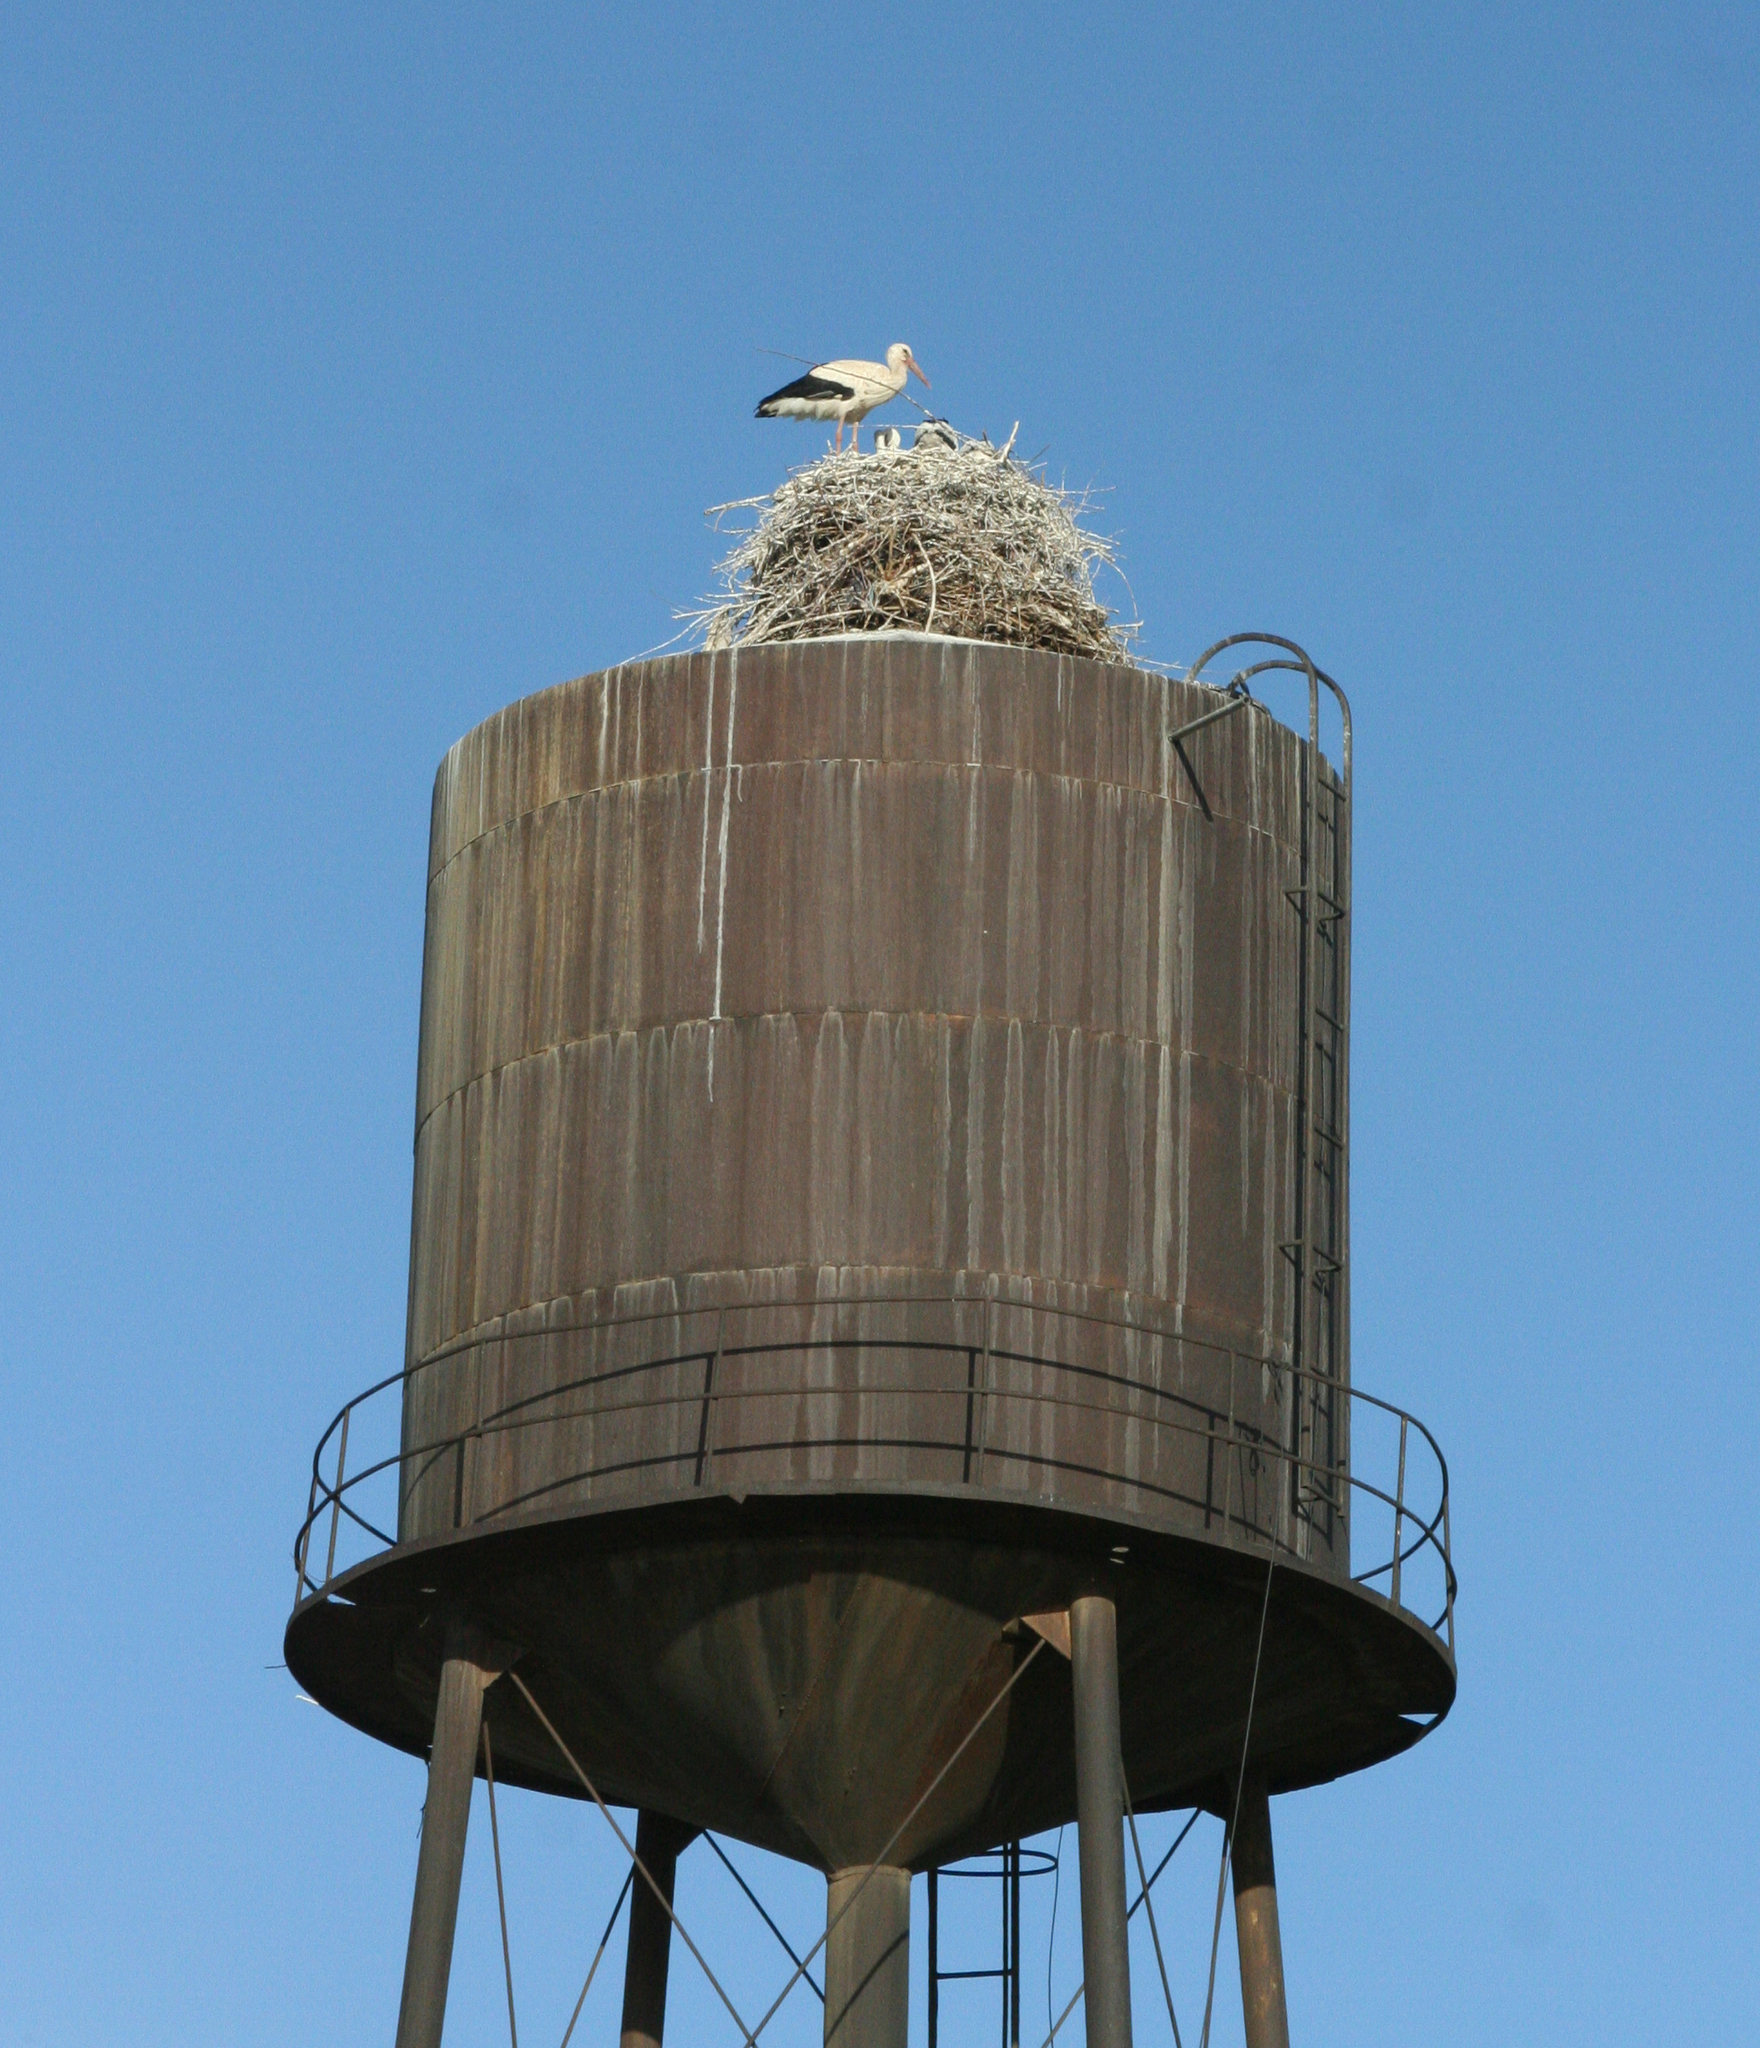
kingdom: Animalia
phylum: Chordata
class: Aves
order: Ciconiiformes
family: Ciconiidae
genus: Ciconia
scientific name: Ciconia ciconia
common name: White stork
